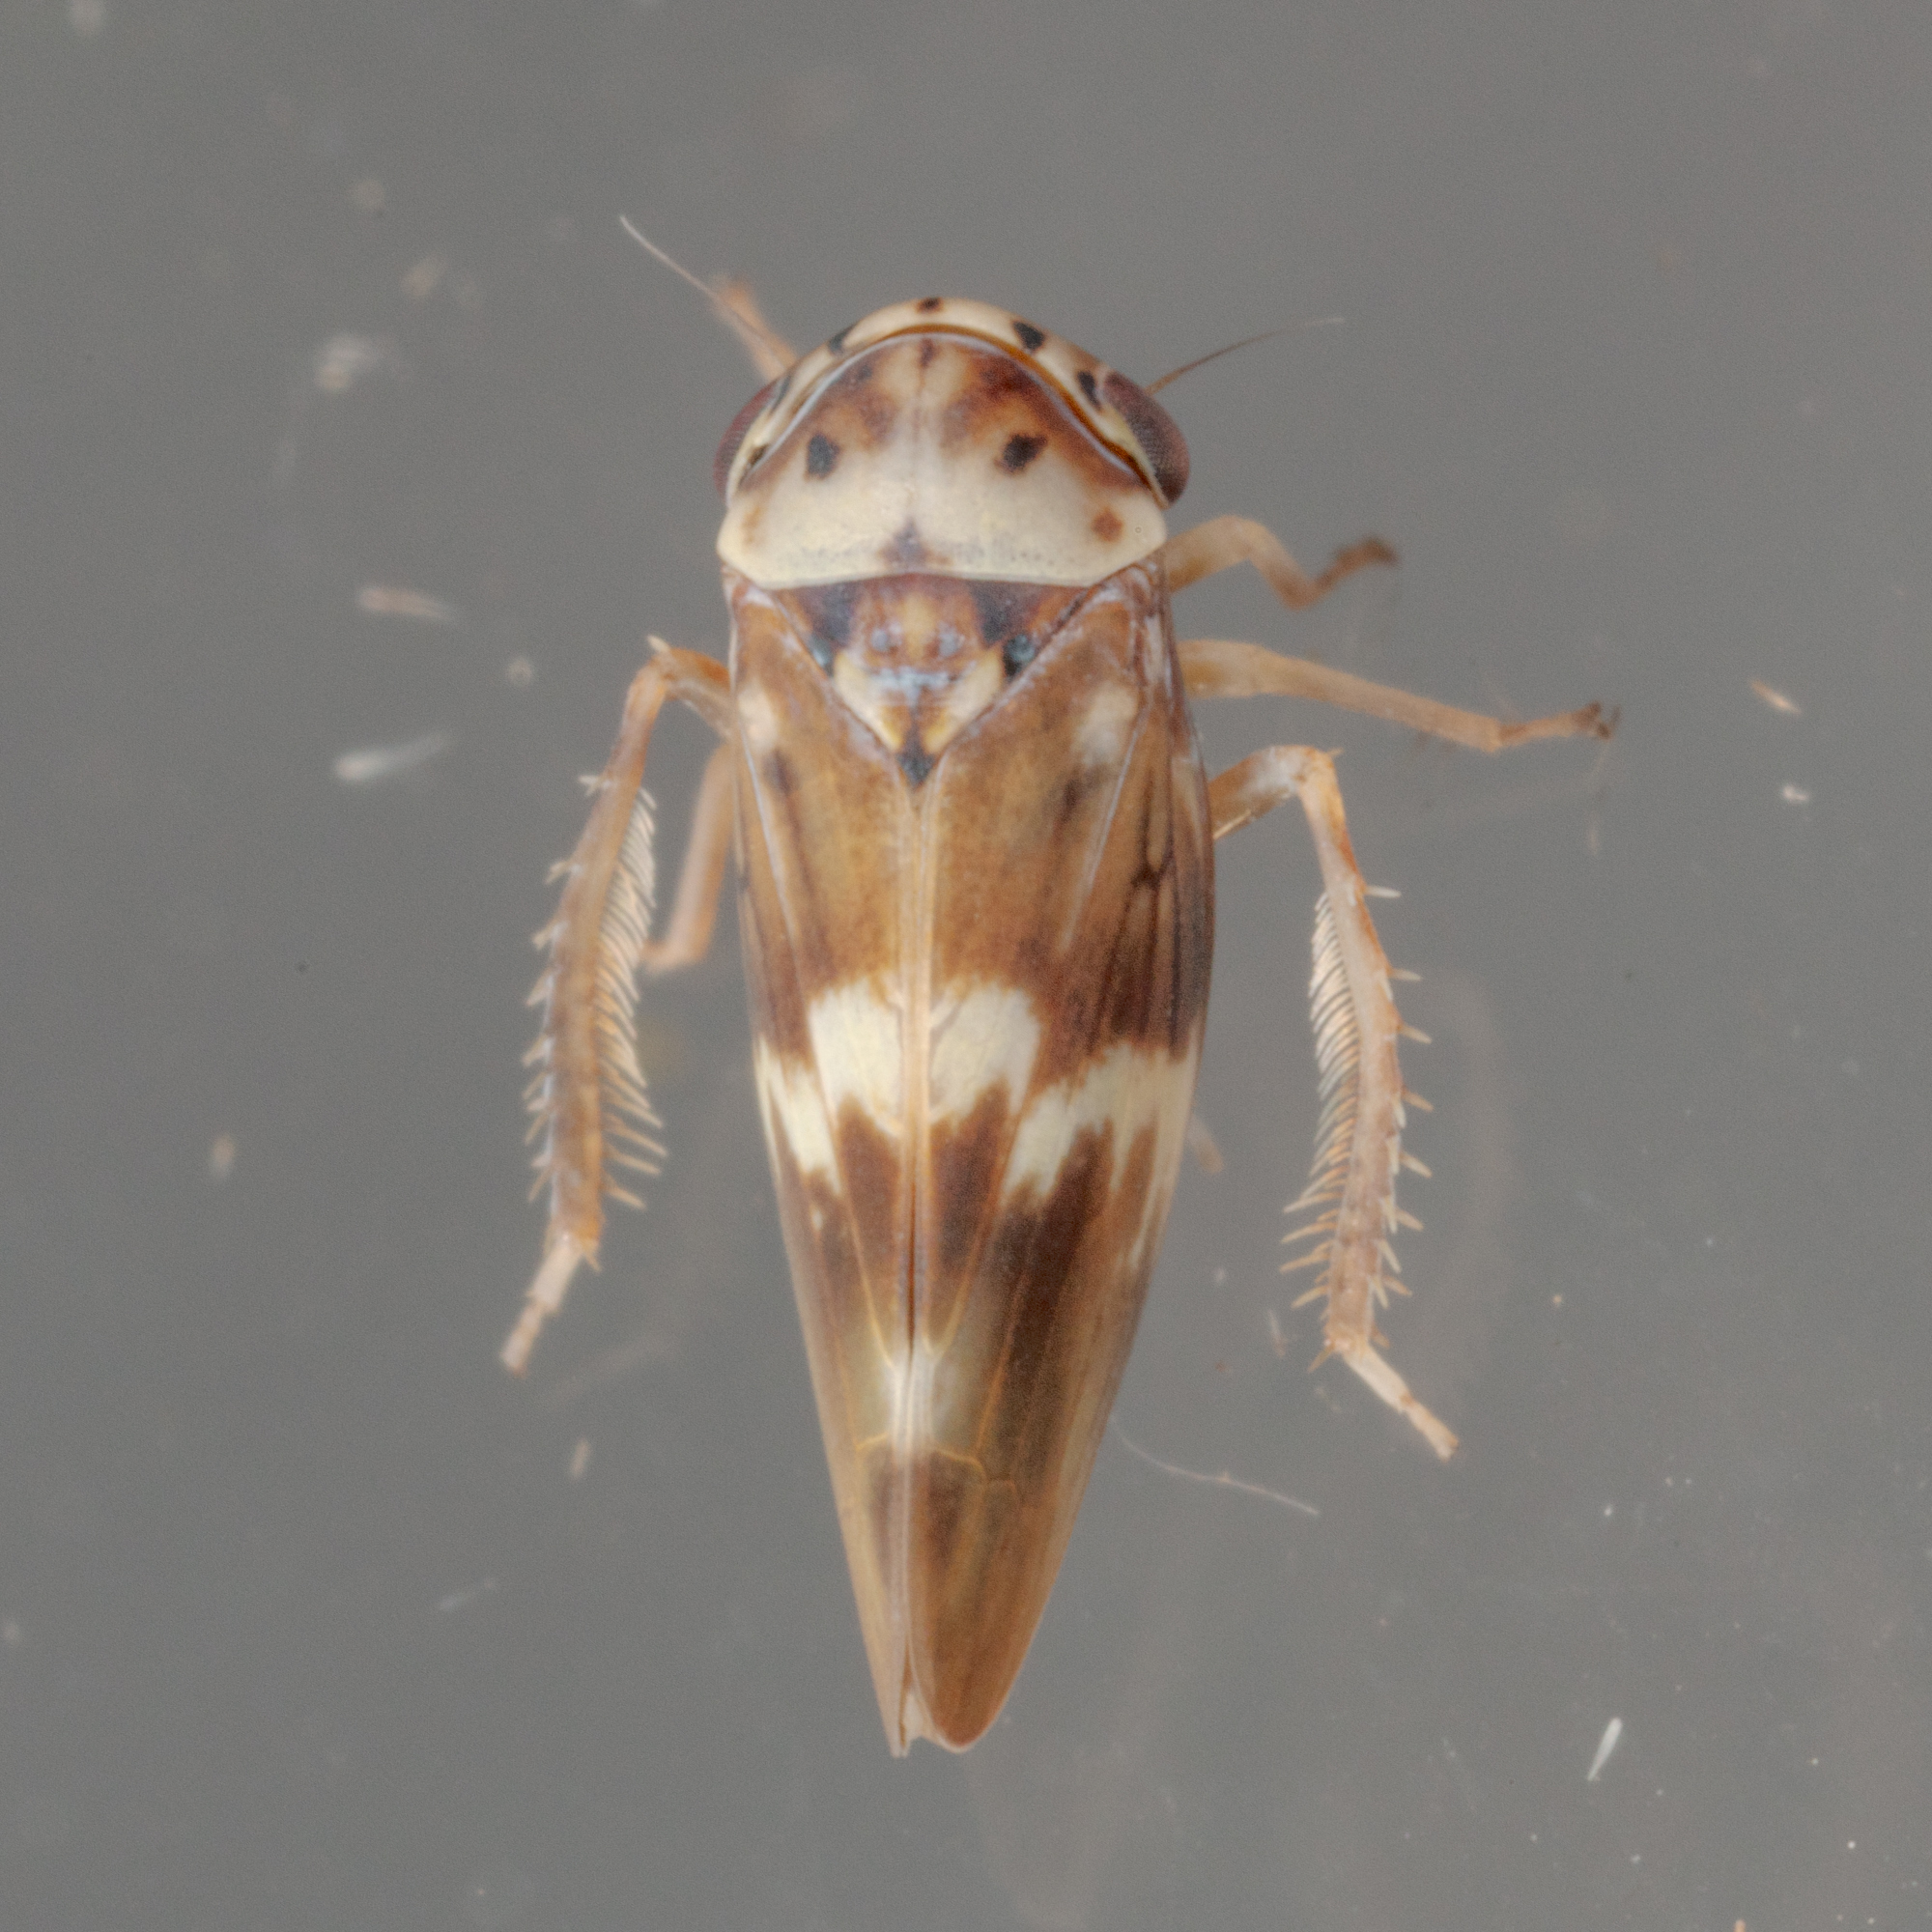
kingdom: Animalia
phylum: Arthropoda
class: Insecta
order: Hemiptera
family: Cicadellidae
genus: Agalliopsis
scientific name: Agalliopsis cervina
